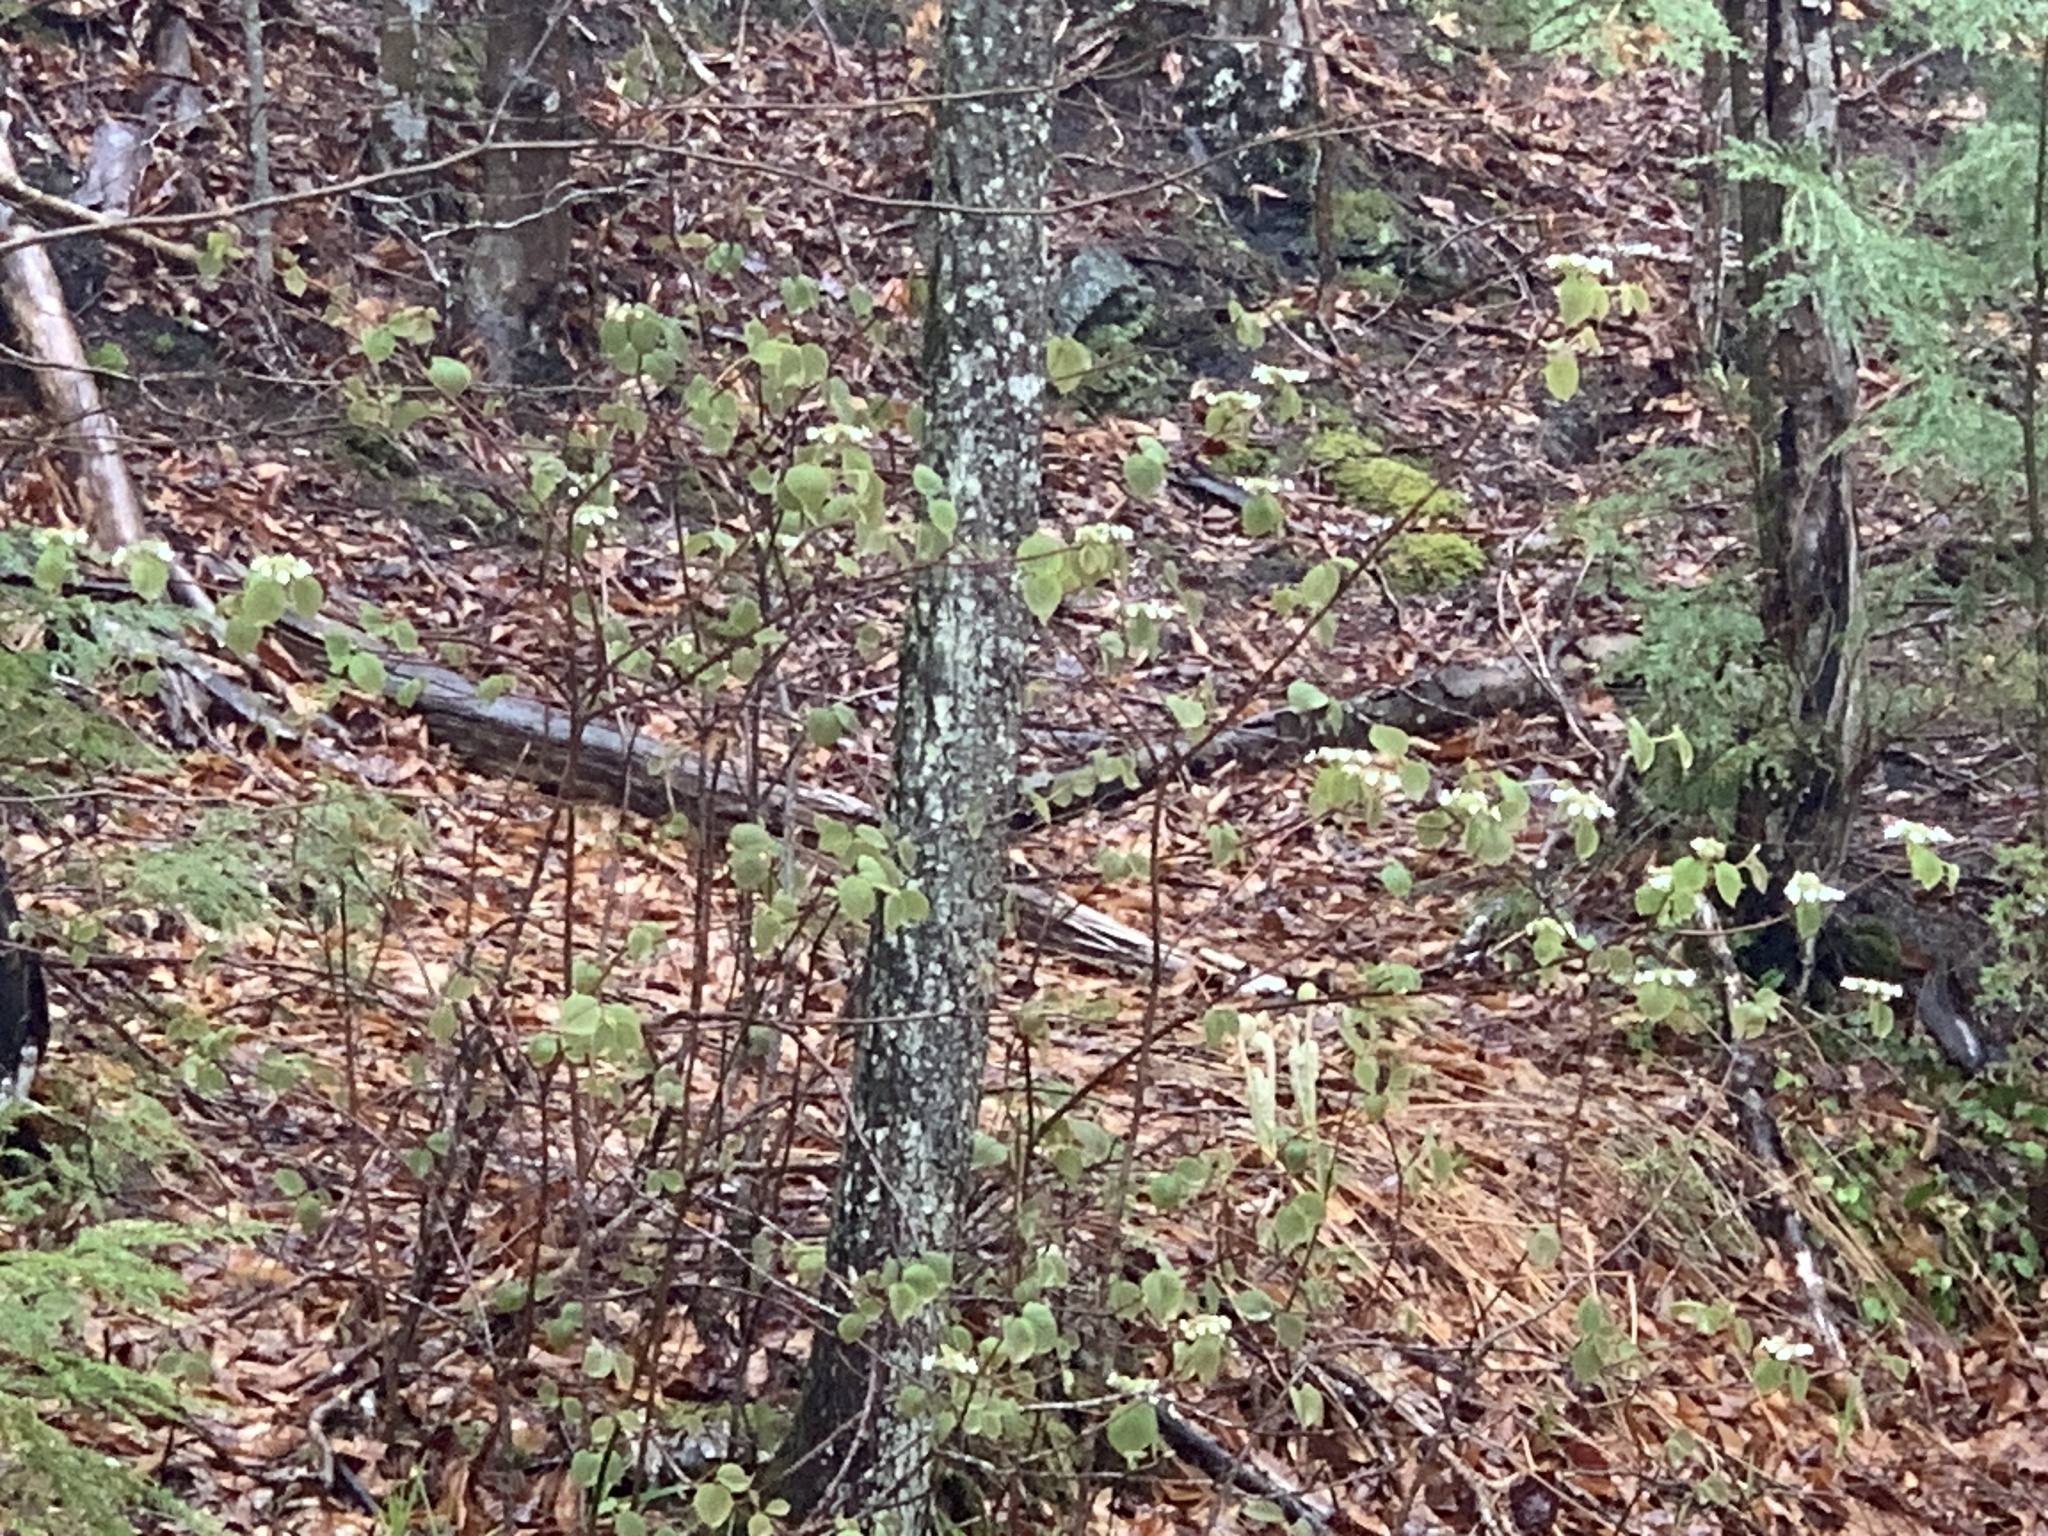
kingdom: Plantae
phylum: Tracheophyta
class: Magnoliopsida
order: Dipsacales
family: Viburnaceae
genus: Viburnum
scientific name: Viburnum lantanoides
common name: Hobblebush
